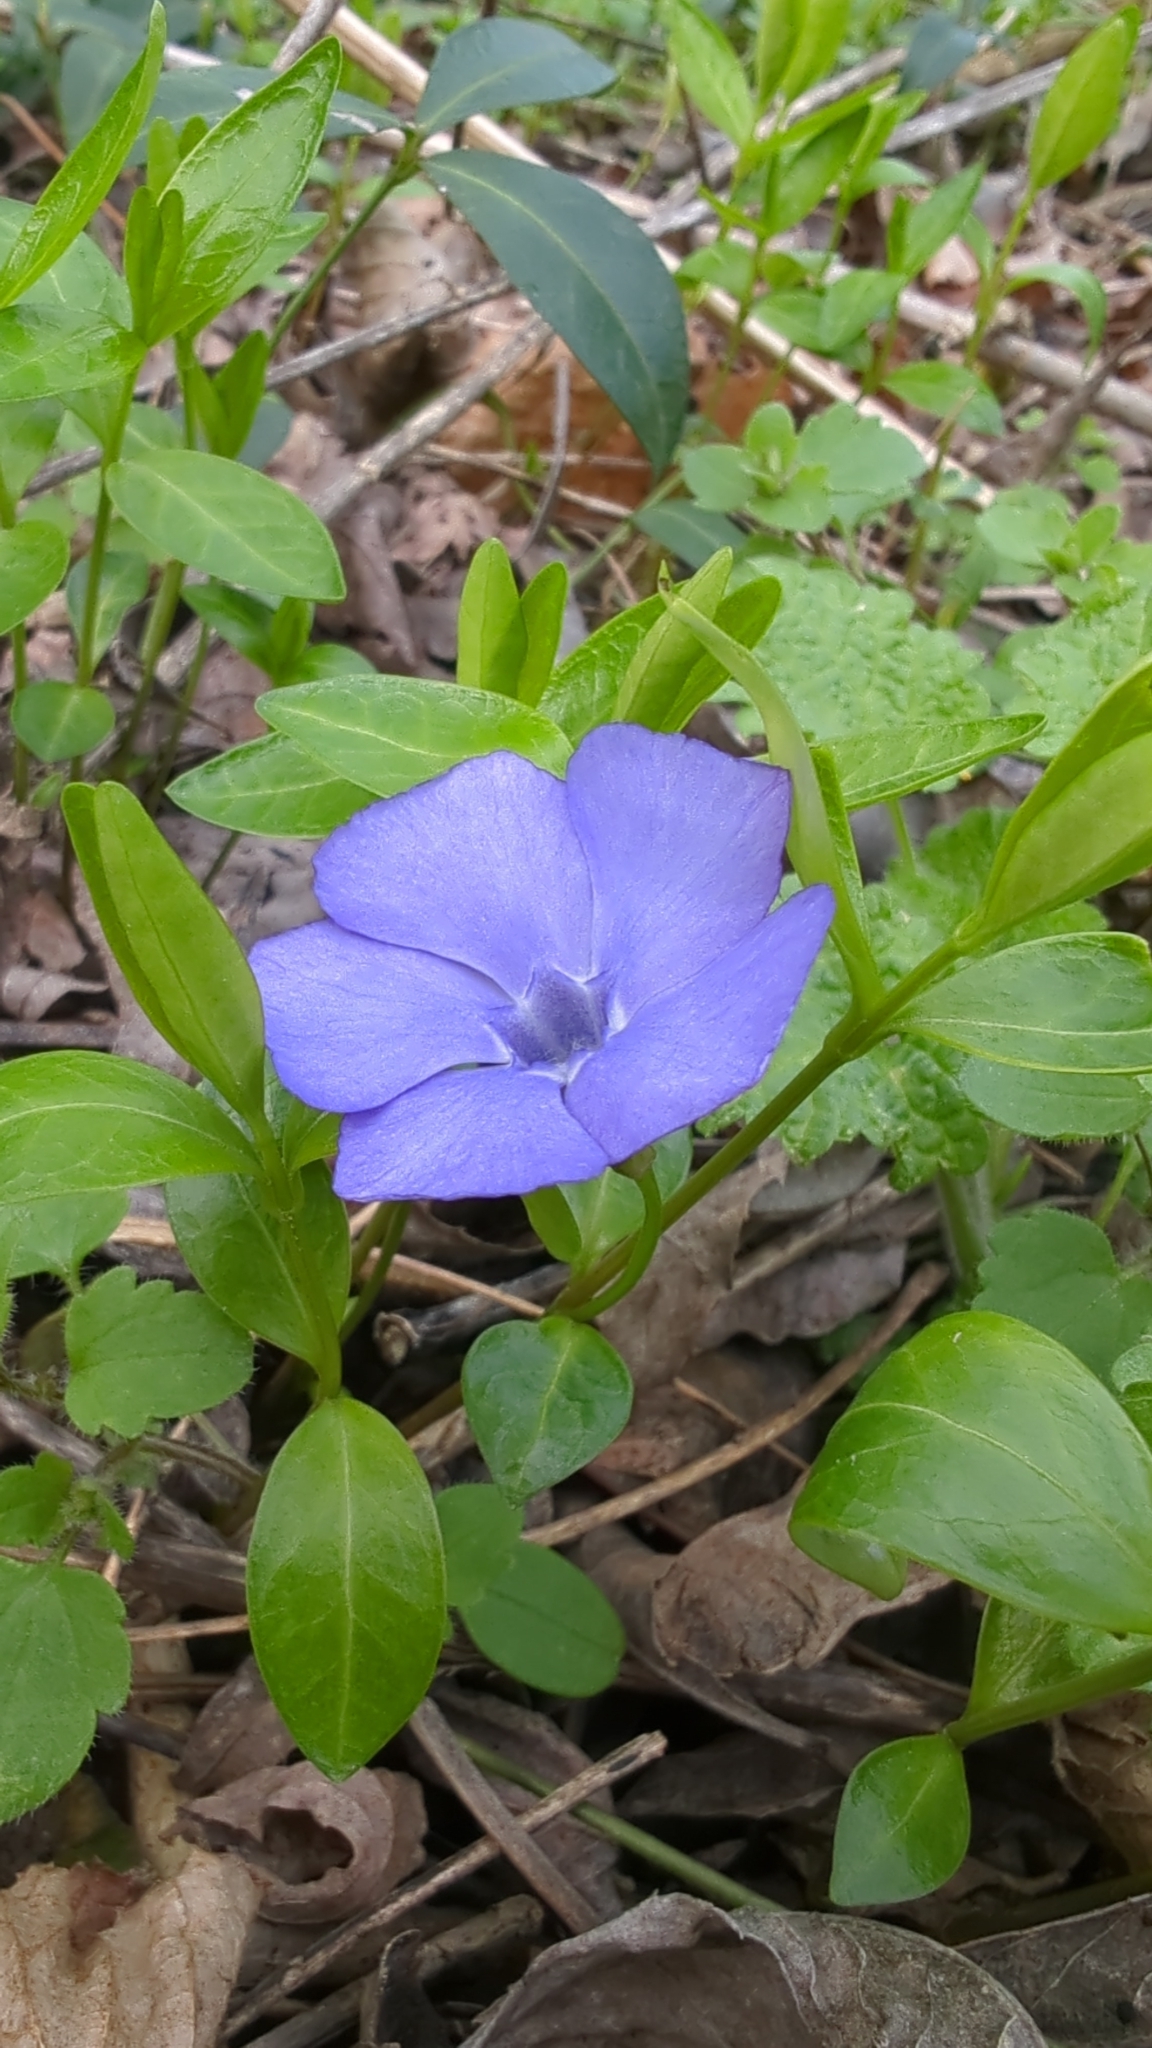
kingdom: Plantae
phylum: Tracheophyta
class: Magnoliopsida
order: Gentianales
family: Apocynaceae
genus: Vinca
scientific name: Vinca minor
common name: Lesser periwinkle
